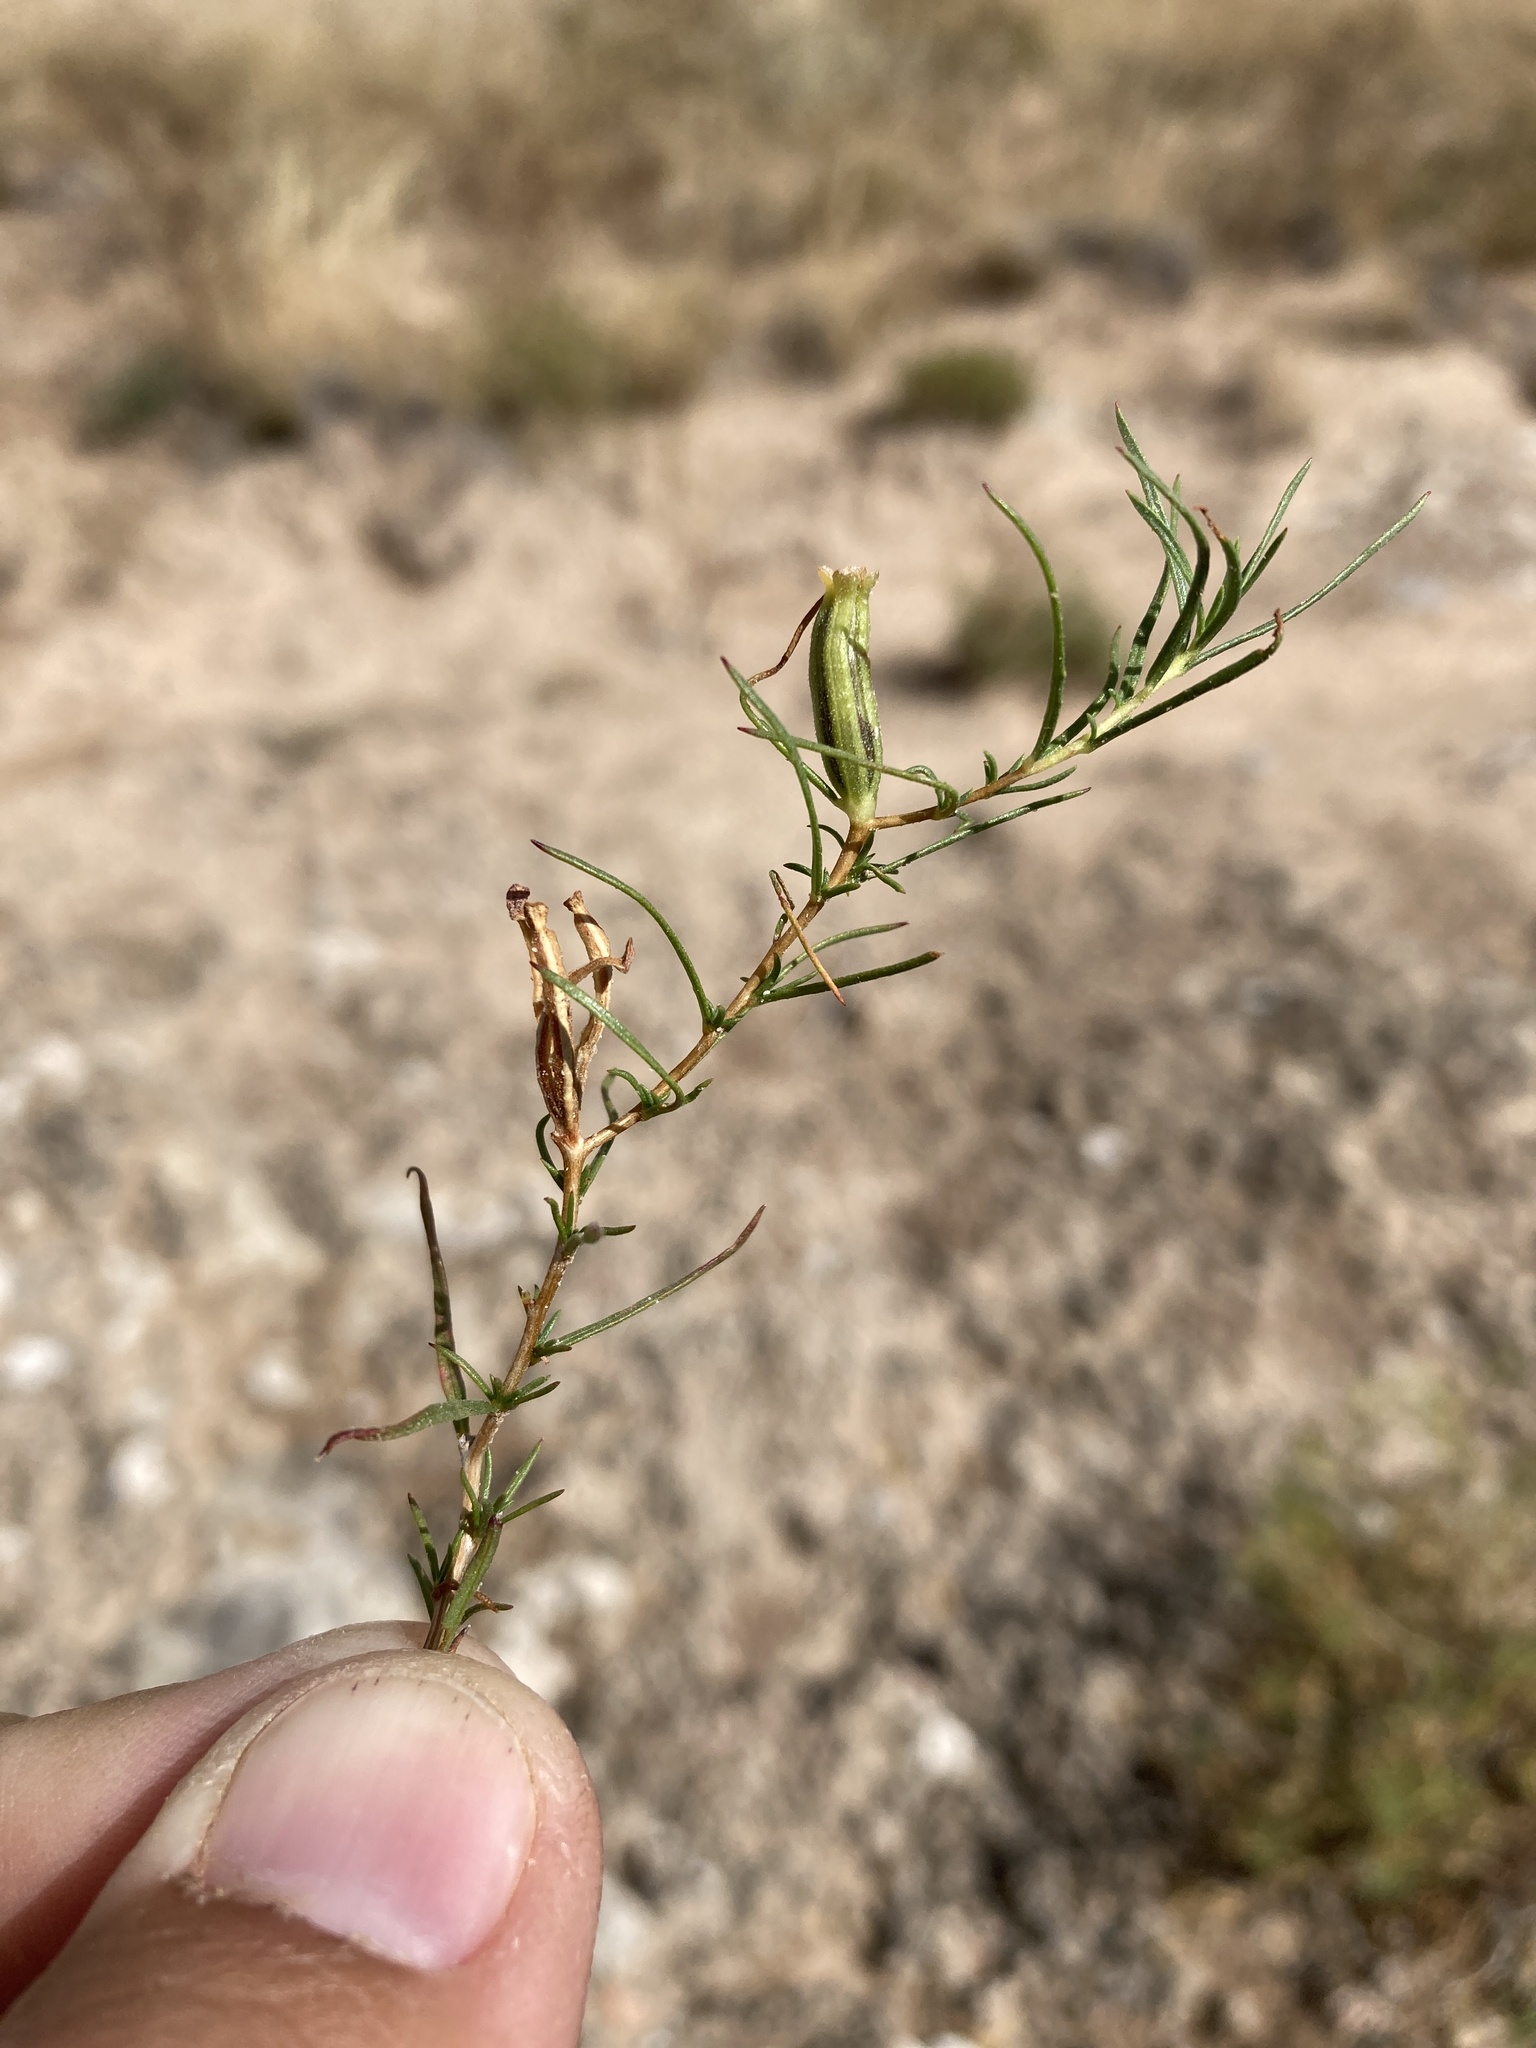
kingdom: Plantae
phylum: Tracheophyta
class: Magnoliopsida
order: Myrtales
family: Onagraceae
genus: Oenothera
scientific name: Oenothera hartwegii
